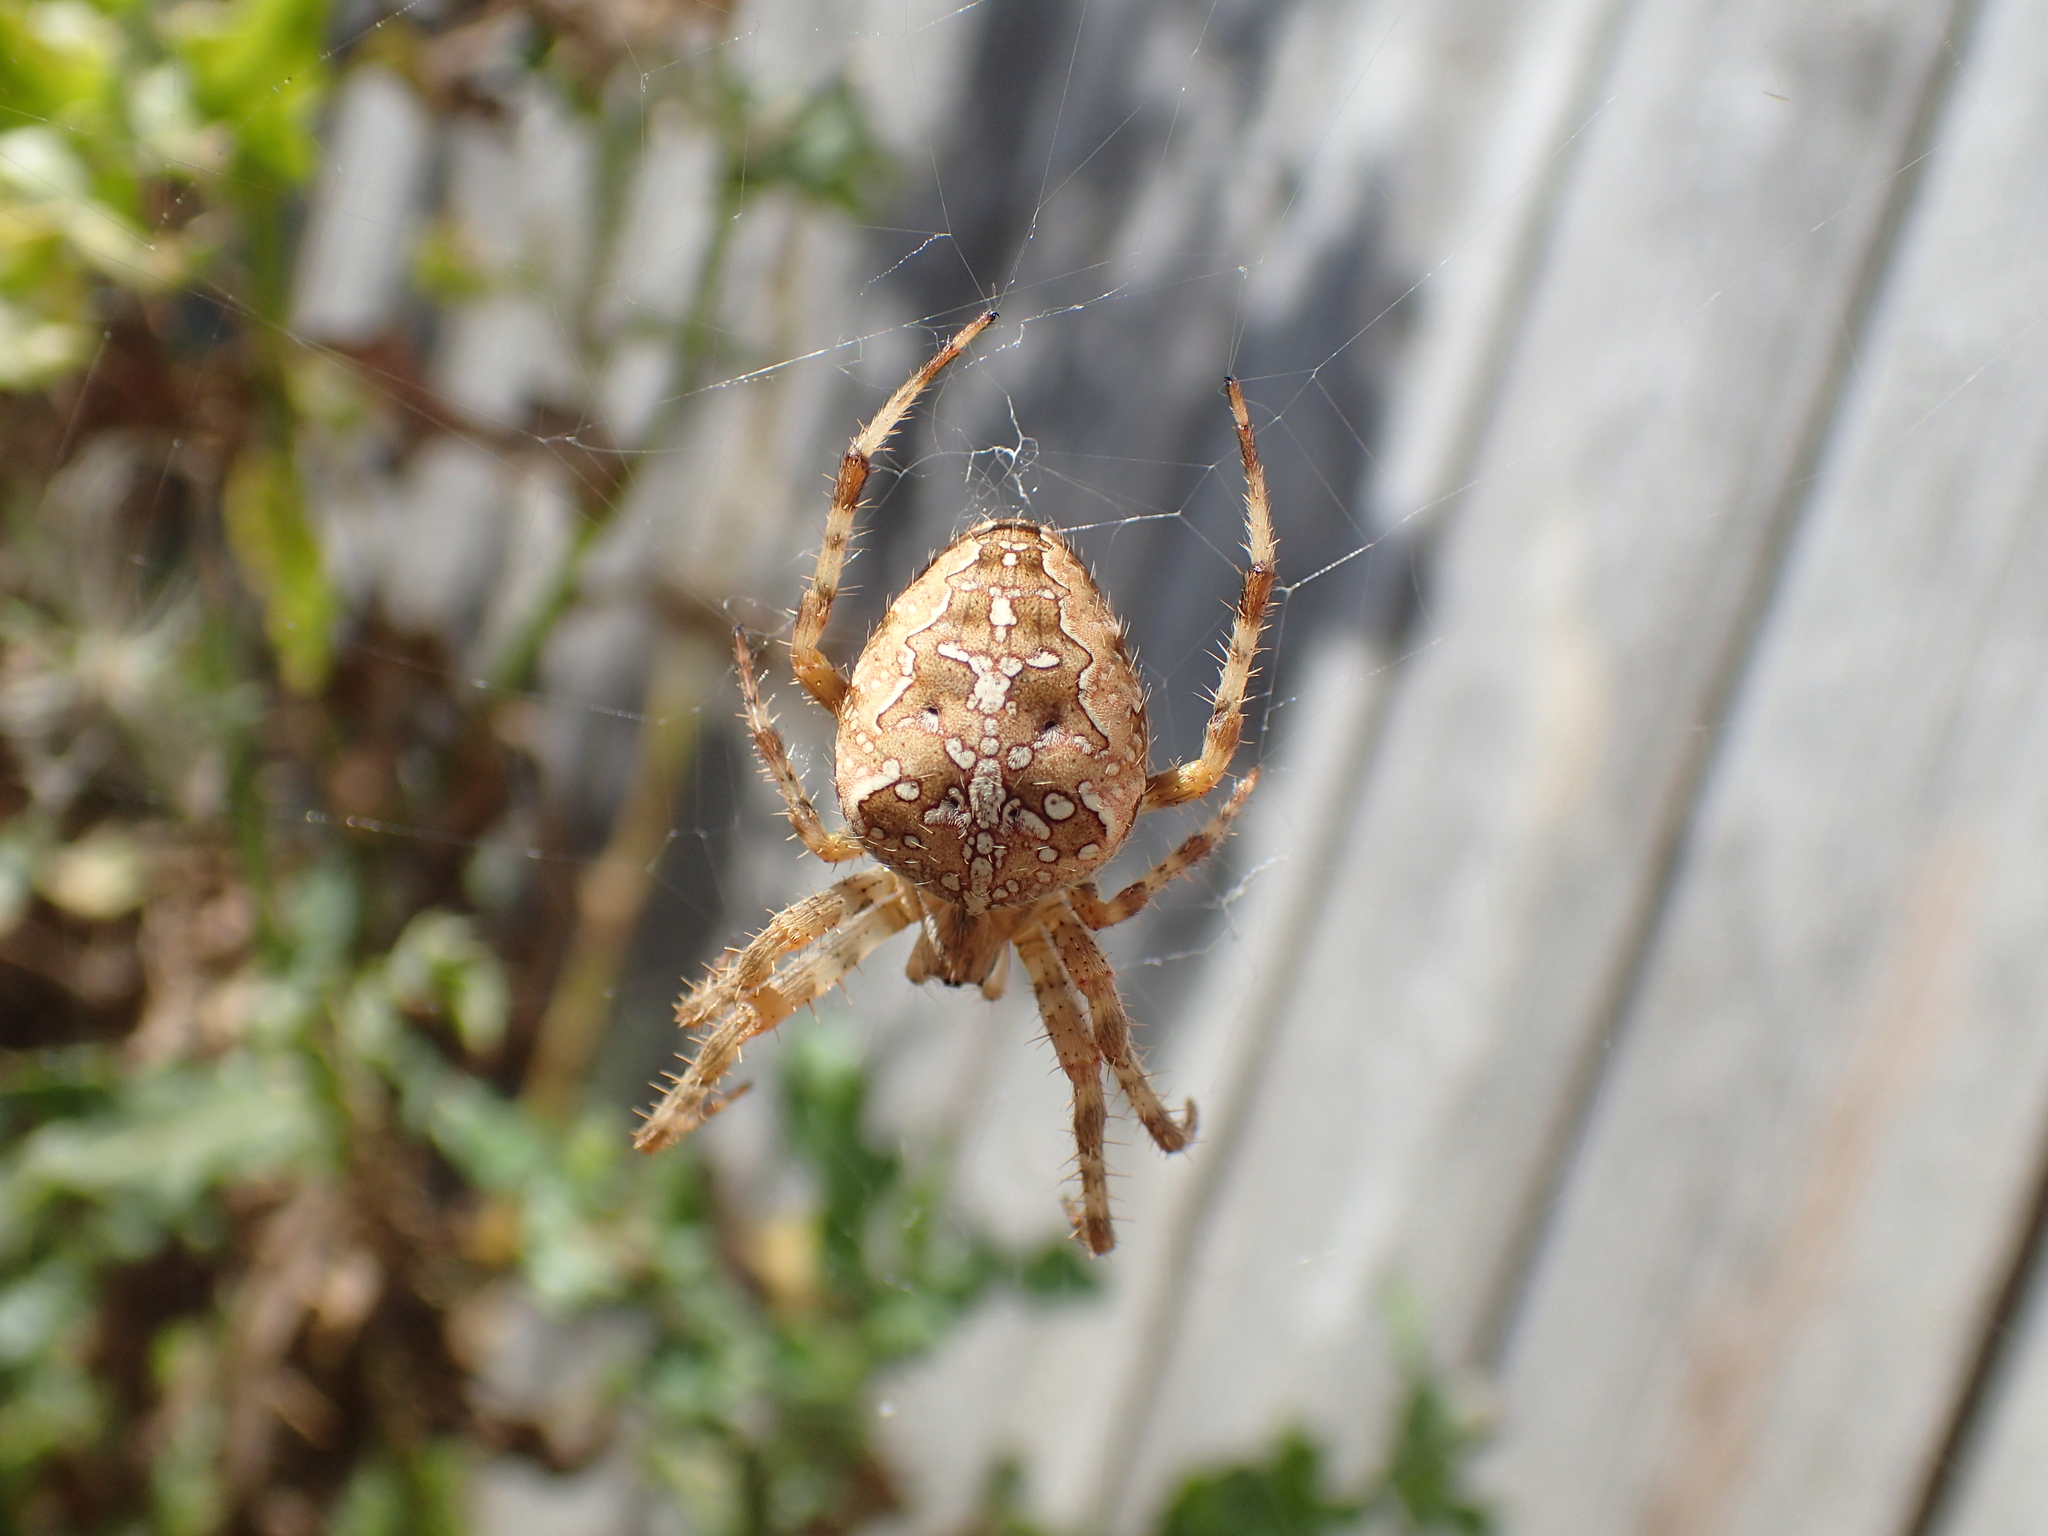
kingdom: Animalia
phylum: Arthropoda
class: Arachnida
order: Araneae
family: Araneidae
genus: Araneus
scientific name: Araneus diadematus
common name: Cross orbweaver
